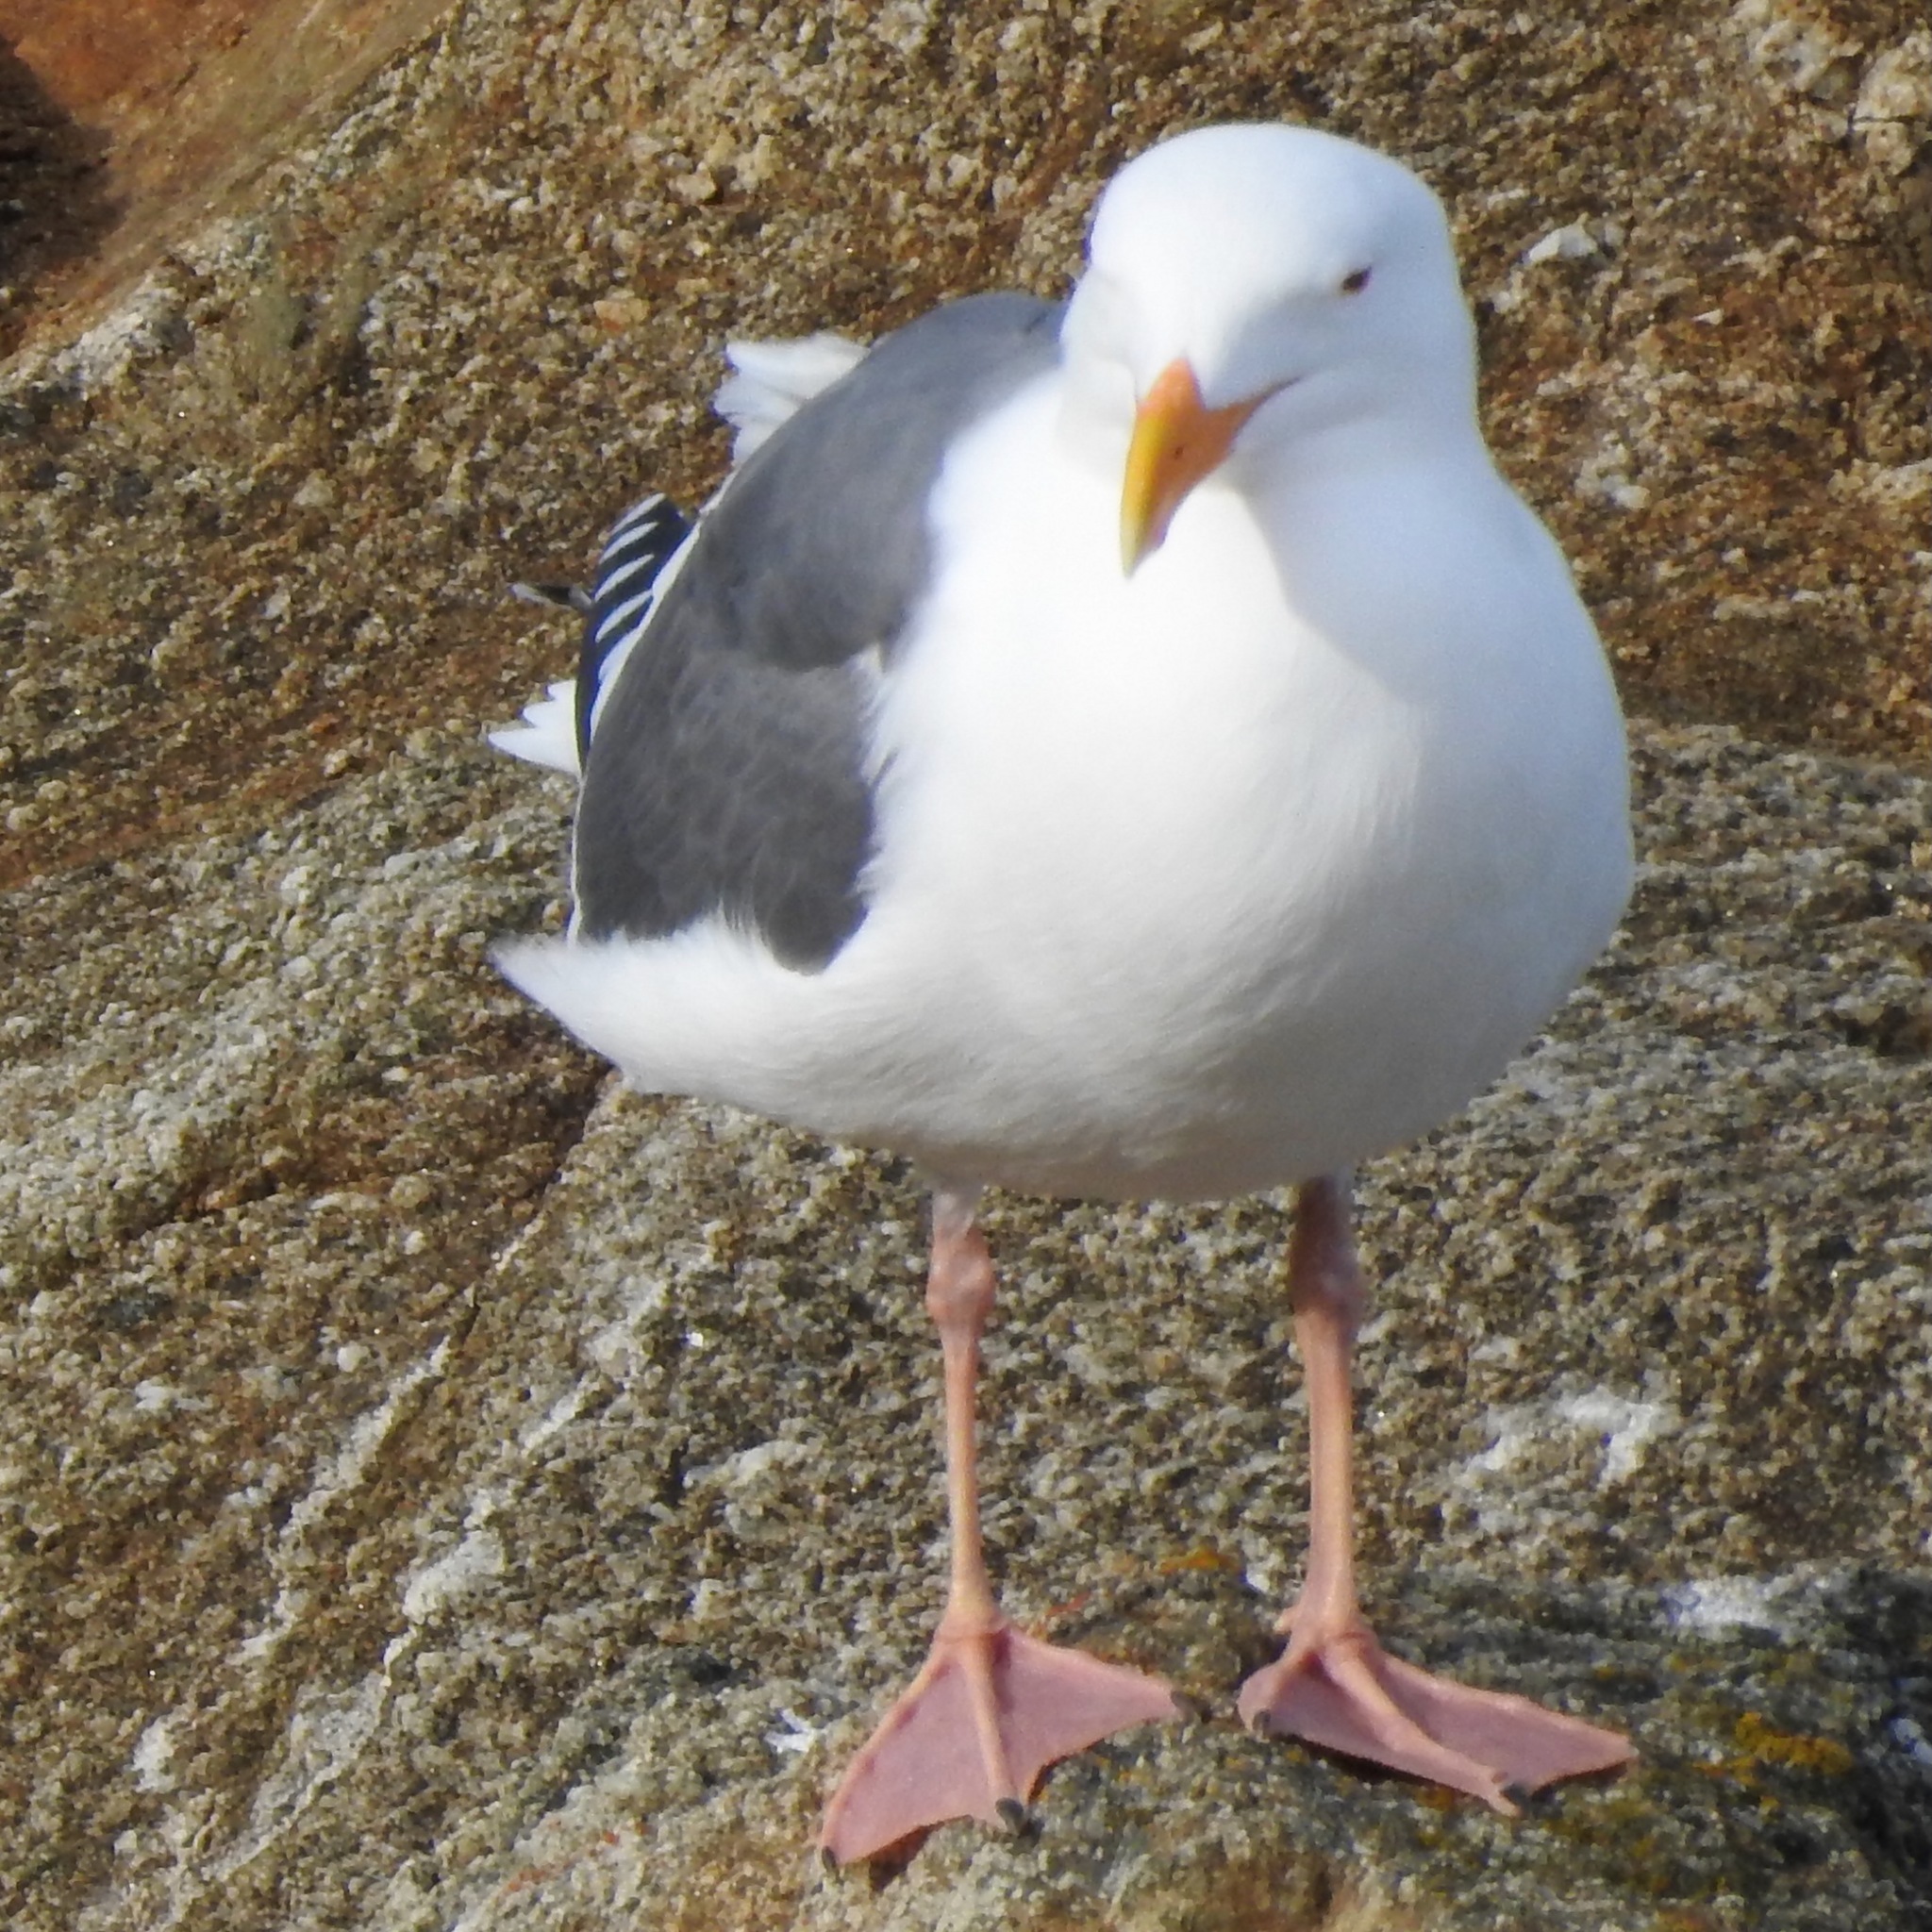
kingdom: Animalia
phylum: Chordata
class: Aves
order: Charadriiformes
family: Laridae
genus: Larus
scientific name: Larus occidentalis
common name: Western gull
